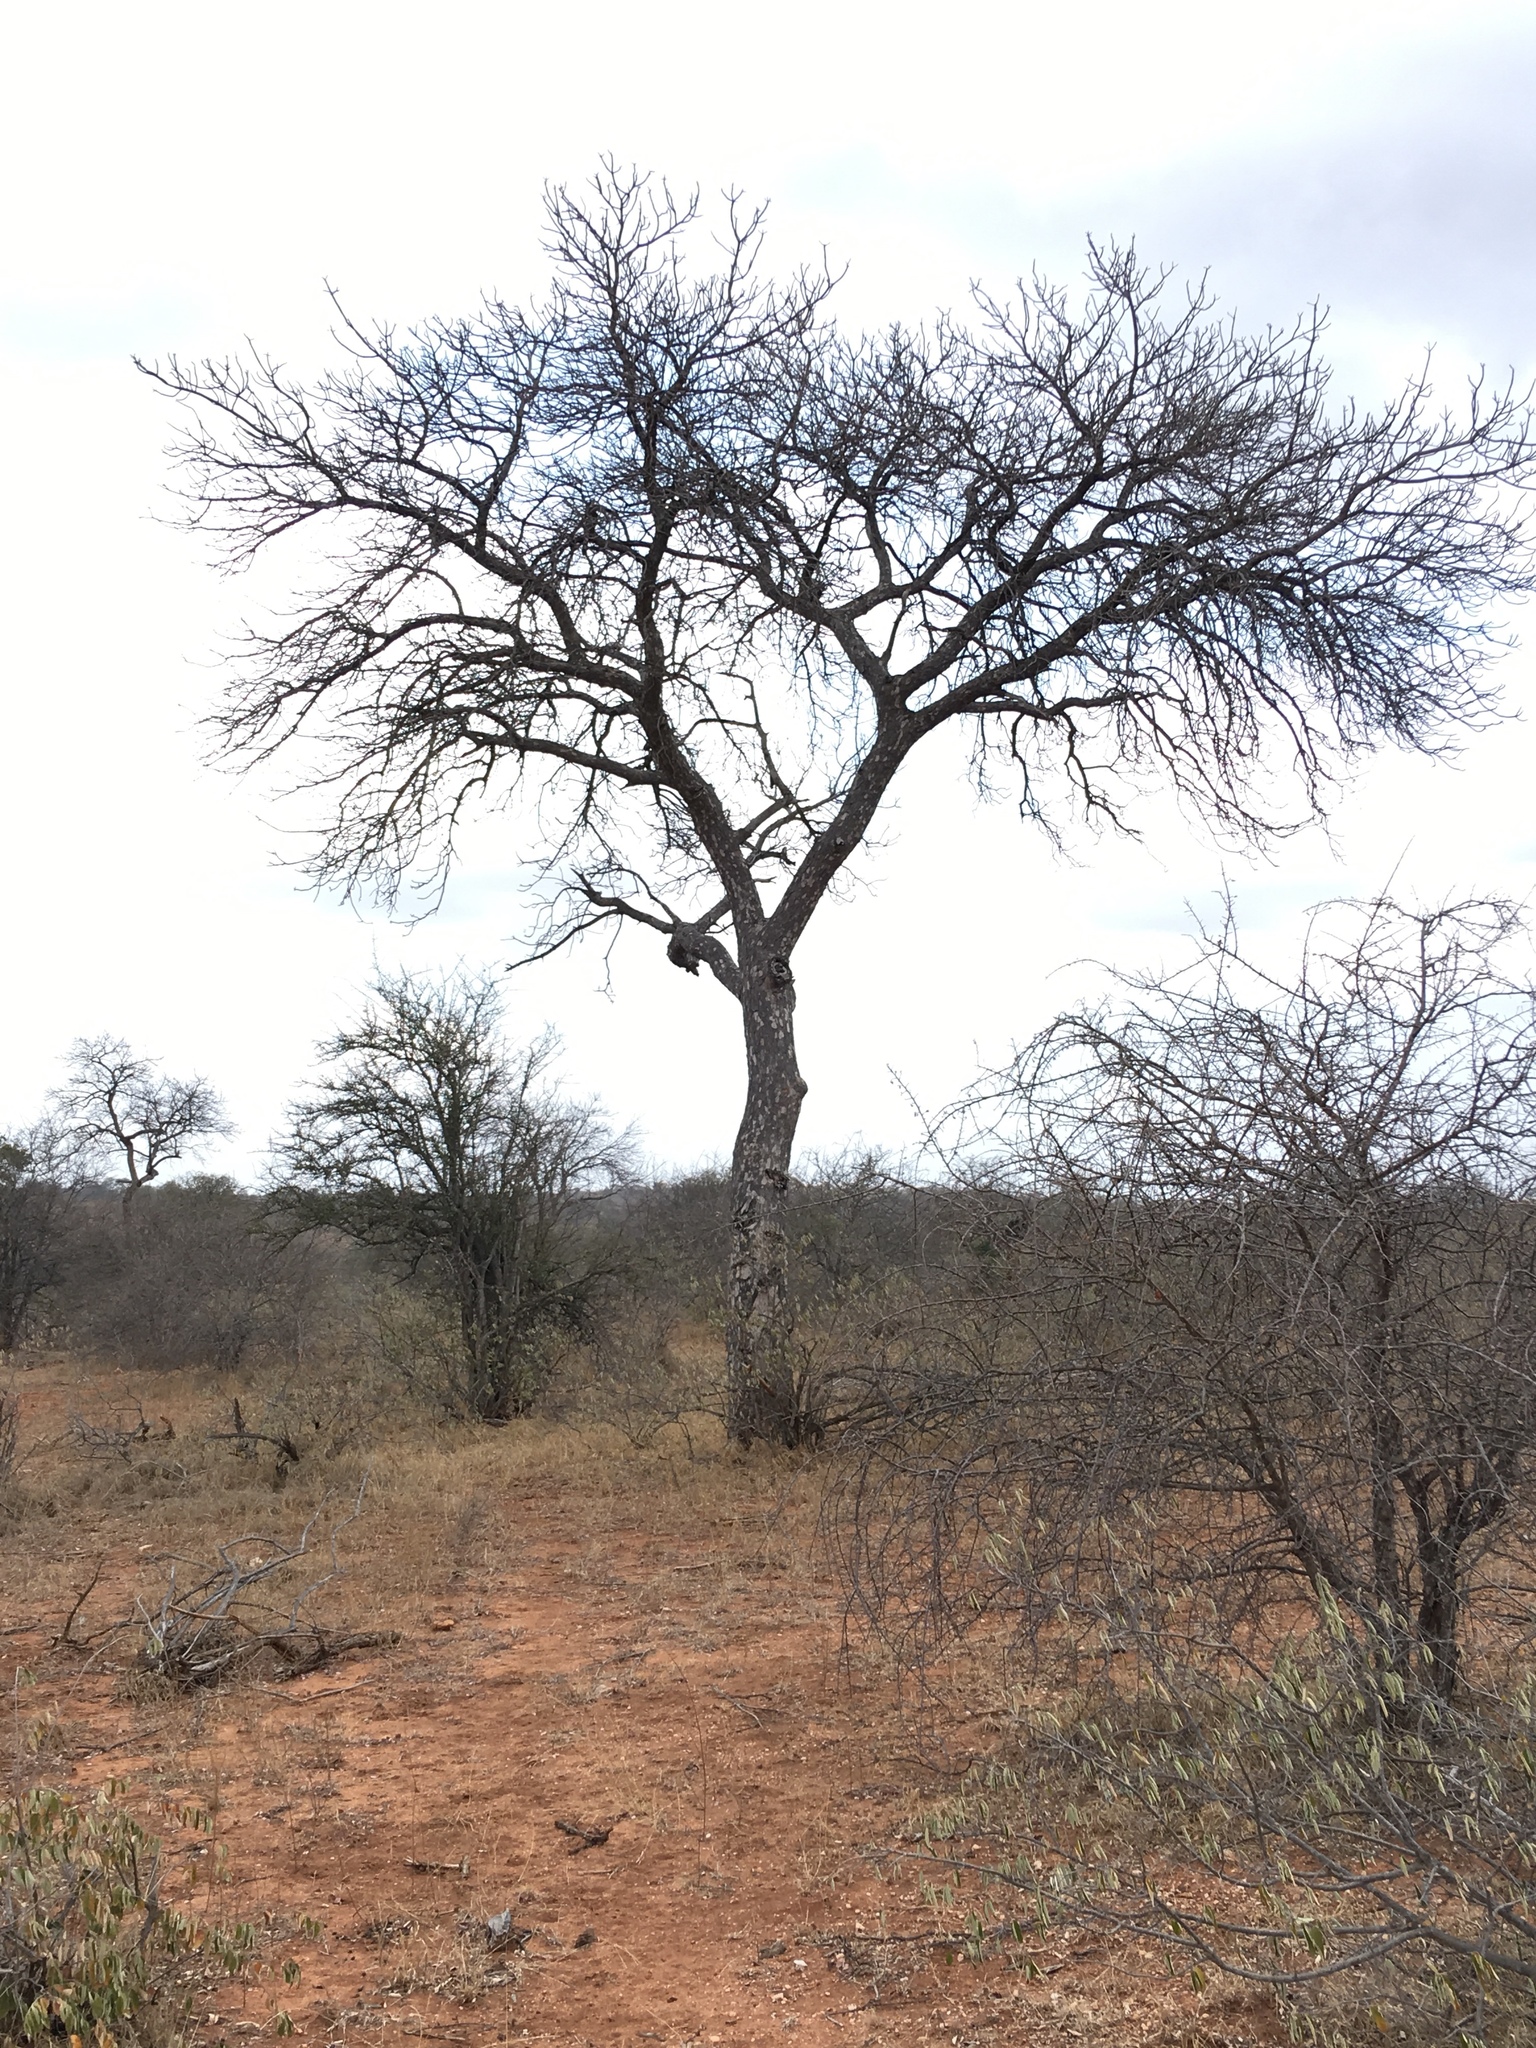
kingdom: Plantae
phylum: Tracheophyta
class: Magnoliopsida
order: Sapindales
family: Anacardiaceae
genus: Sclerocarya
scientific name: Sclerocarya birrea
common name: Marula
